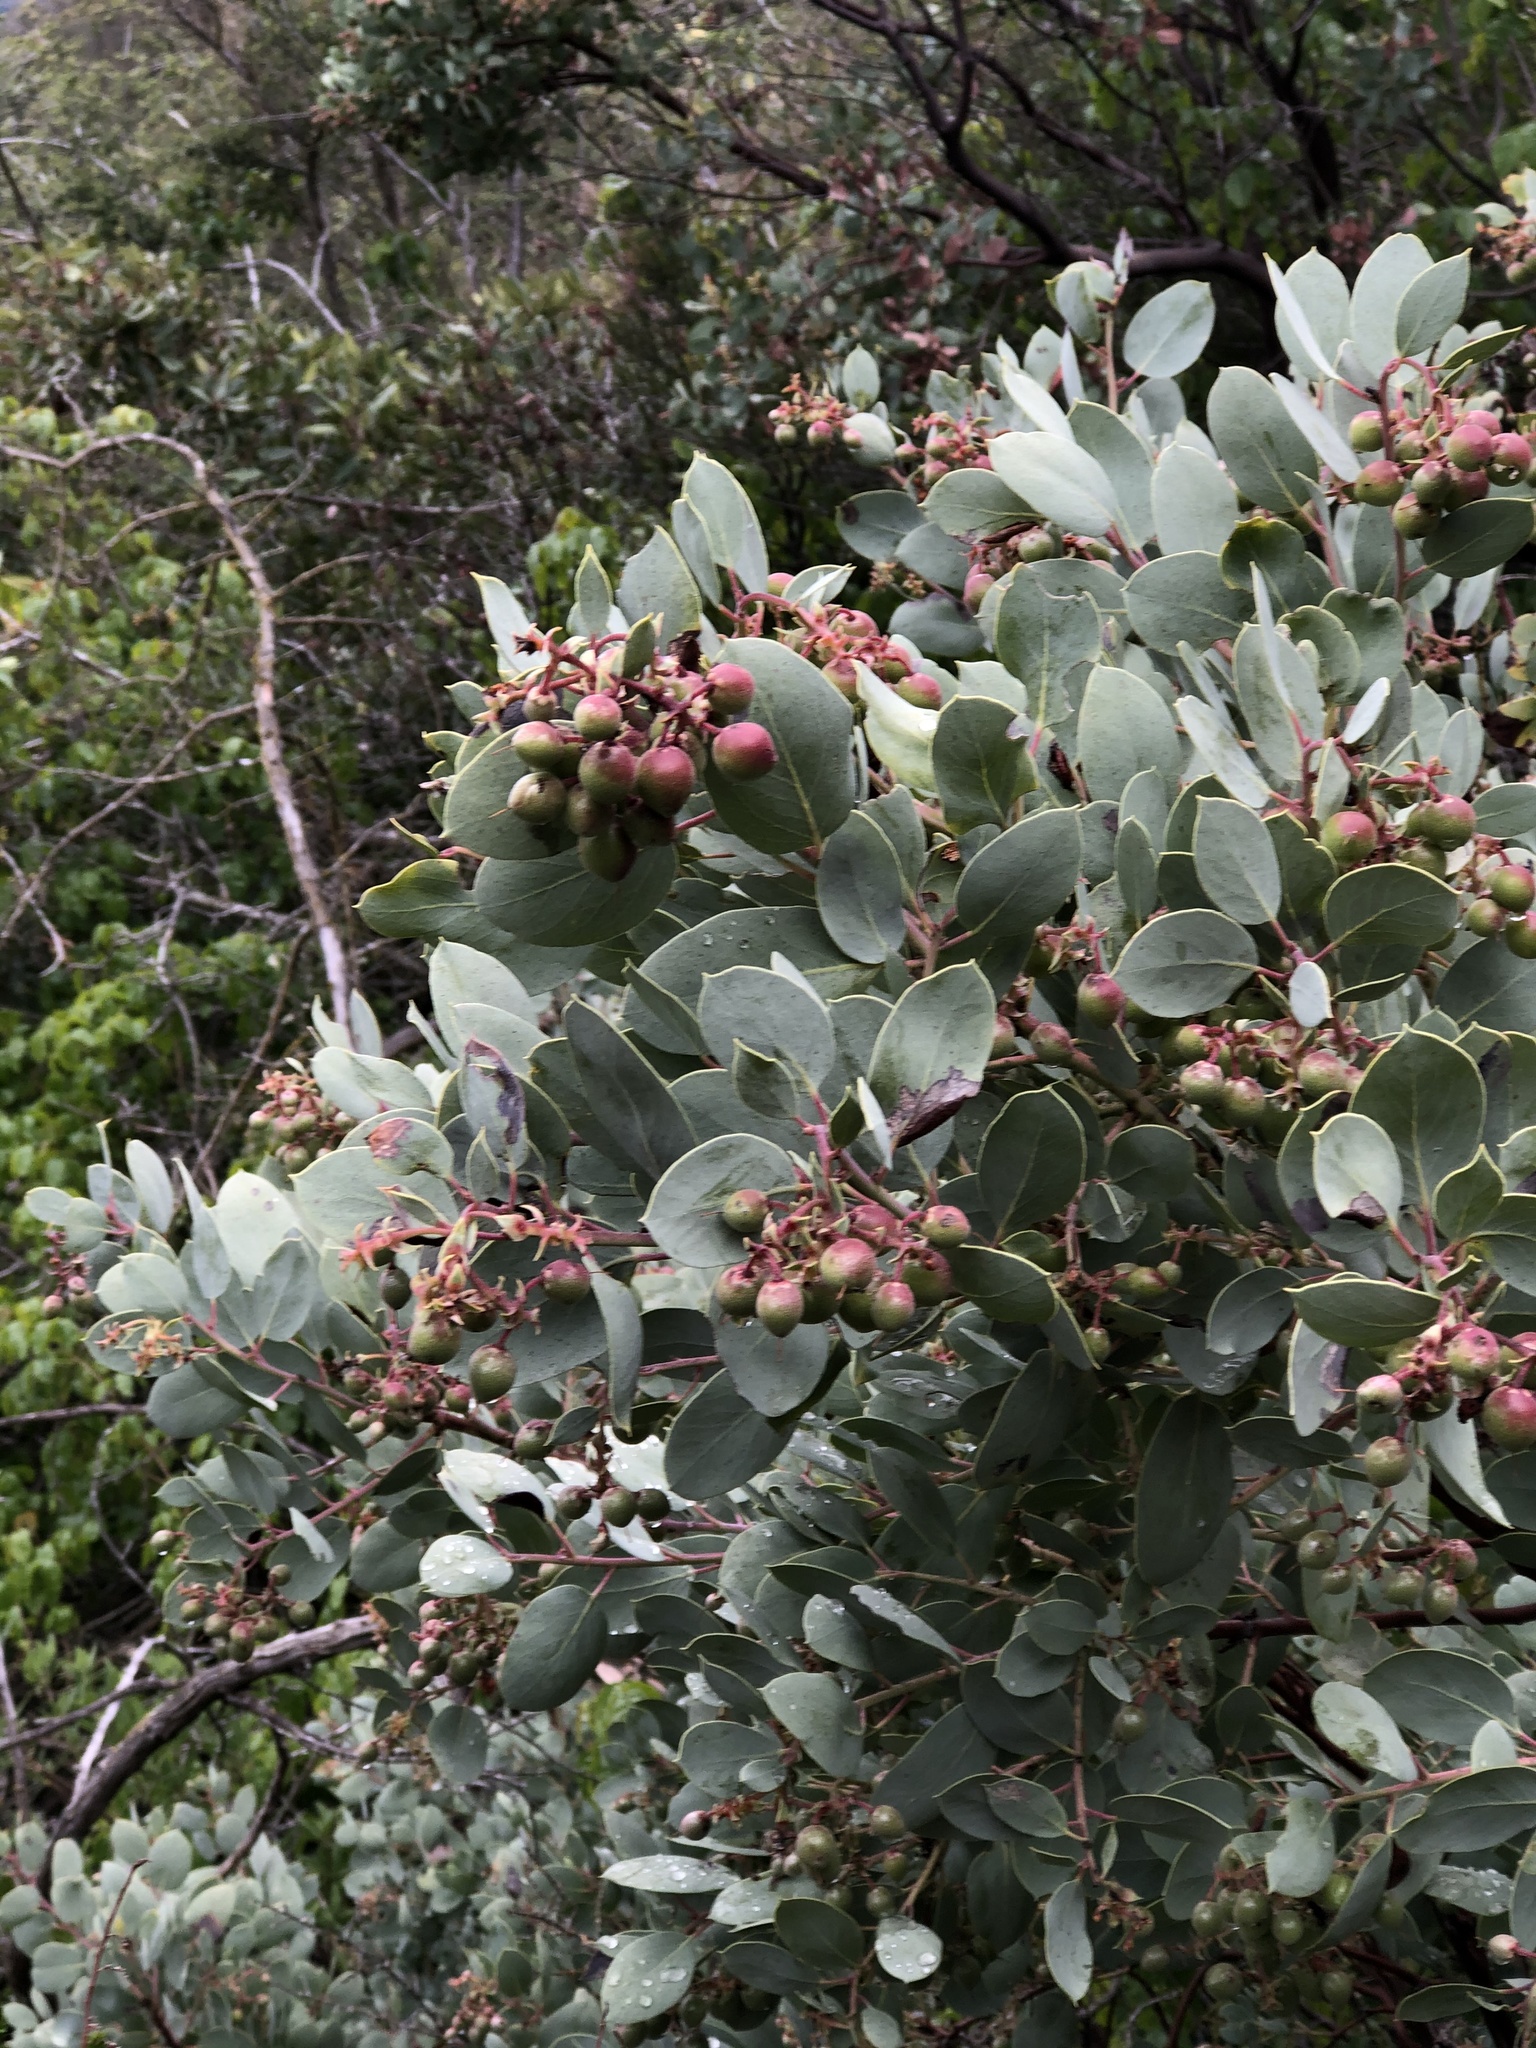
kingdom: Plantae
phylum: Tracheophyta
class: Magnoliopsida
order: Ericales
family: Ericaceae
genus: Arctostaphylos
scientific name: Arctostaphylos glauca
